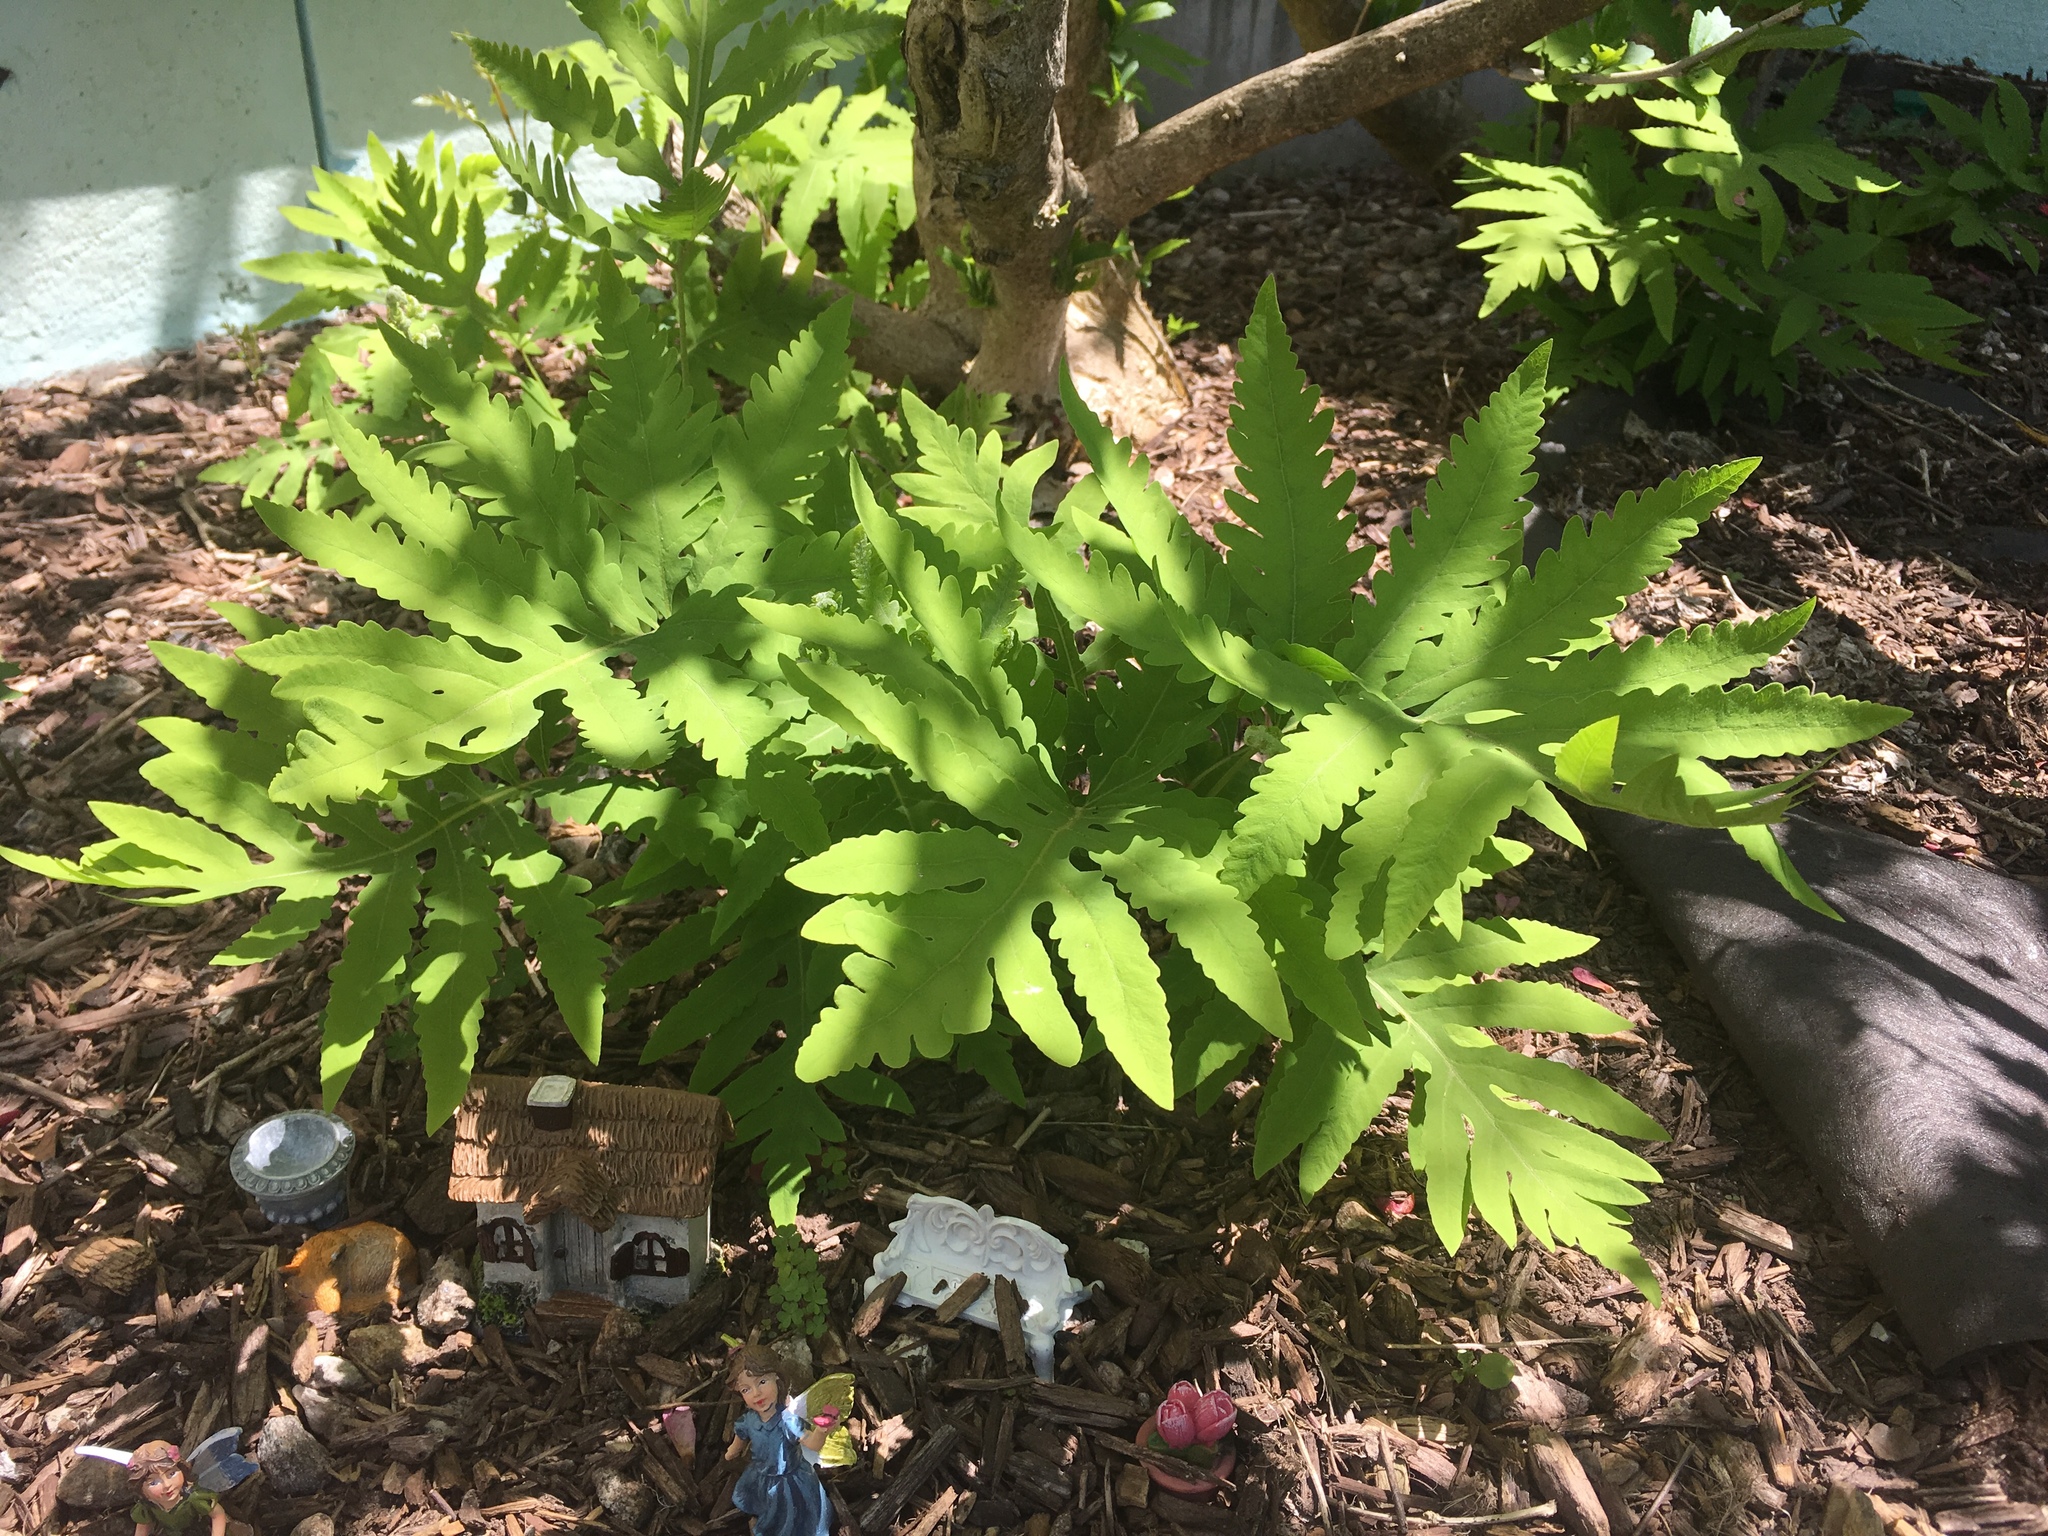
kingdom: Plantae
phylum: Tracheophyta
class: Polypodiopsida
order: Polypodiales
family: Onocleaceae
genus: Onoclea
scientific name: Onoclea sensibilis
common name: Sensitive fern
